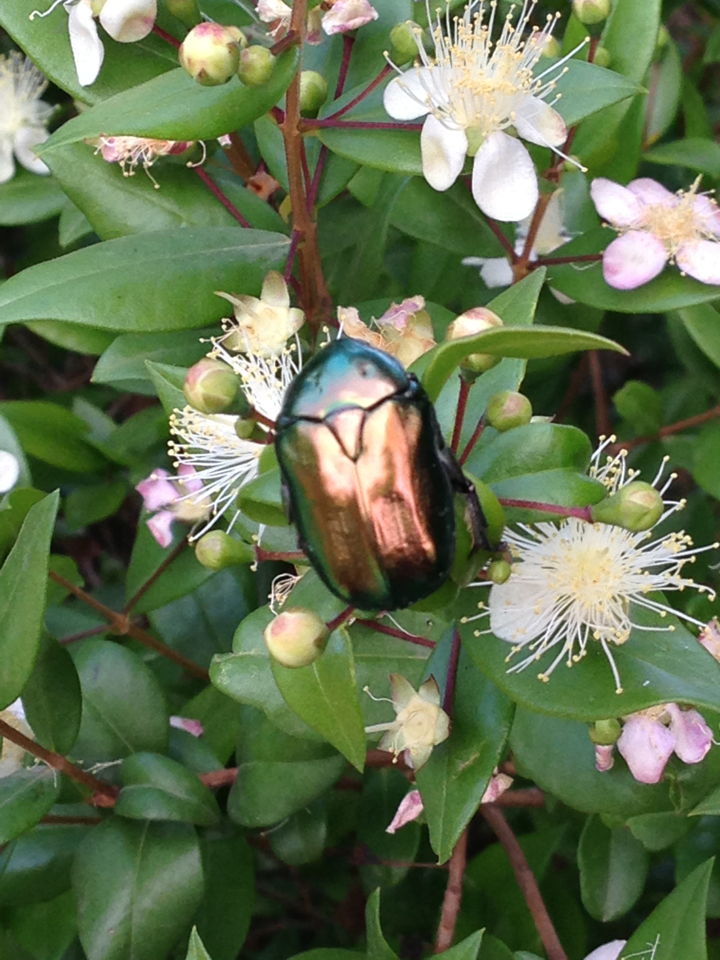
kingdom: Animalia
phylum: Arthropoda
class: Insecta
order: Coleoptera
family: Scarabaeidae
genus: Protaetia
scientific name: Protaetia cuprea
